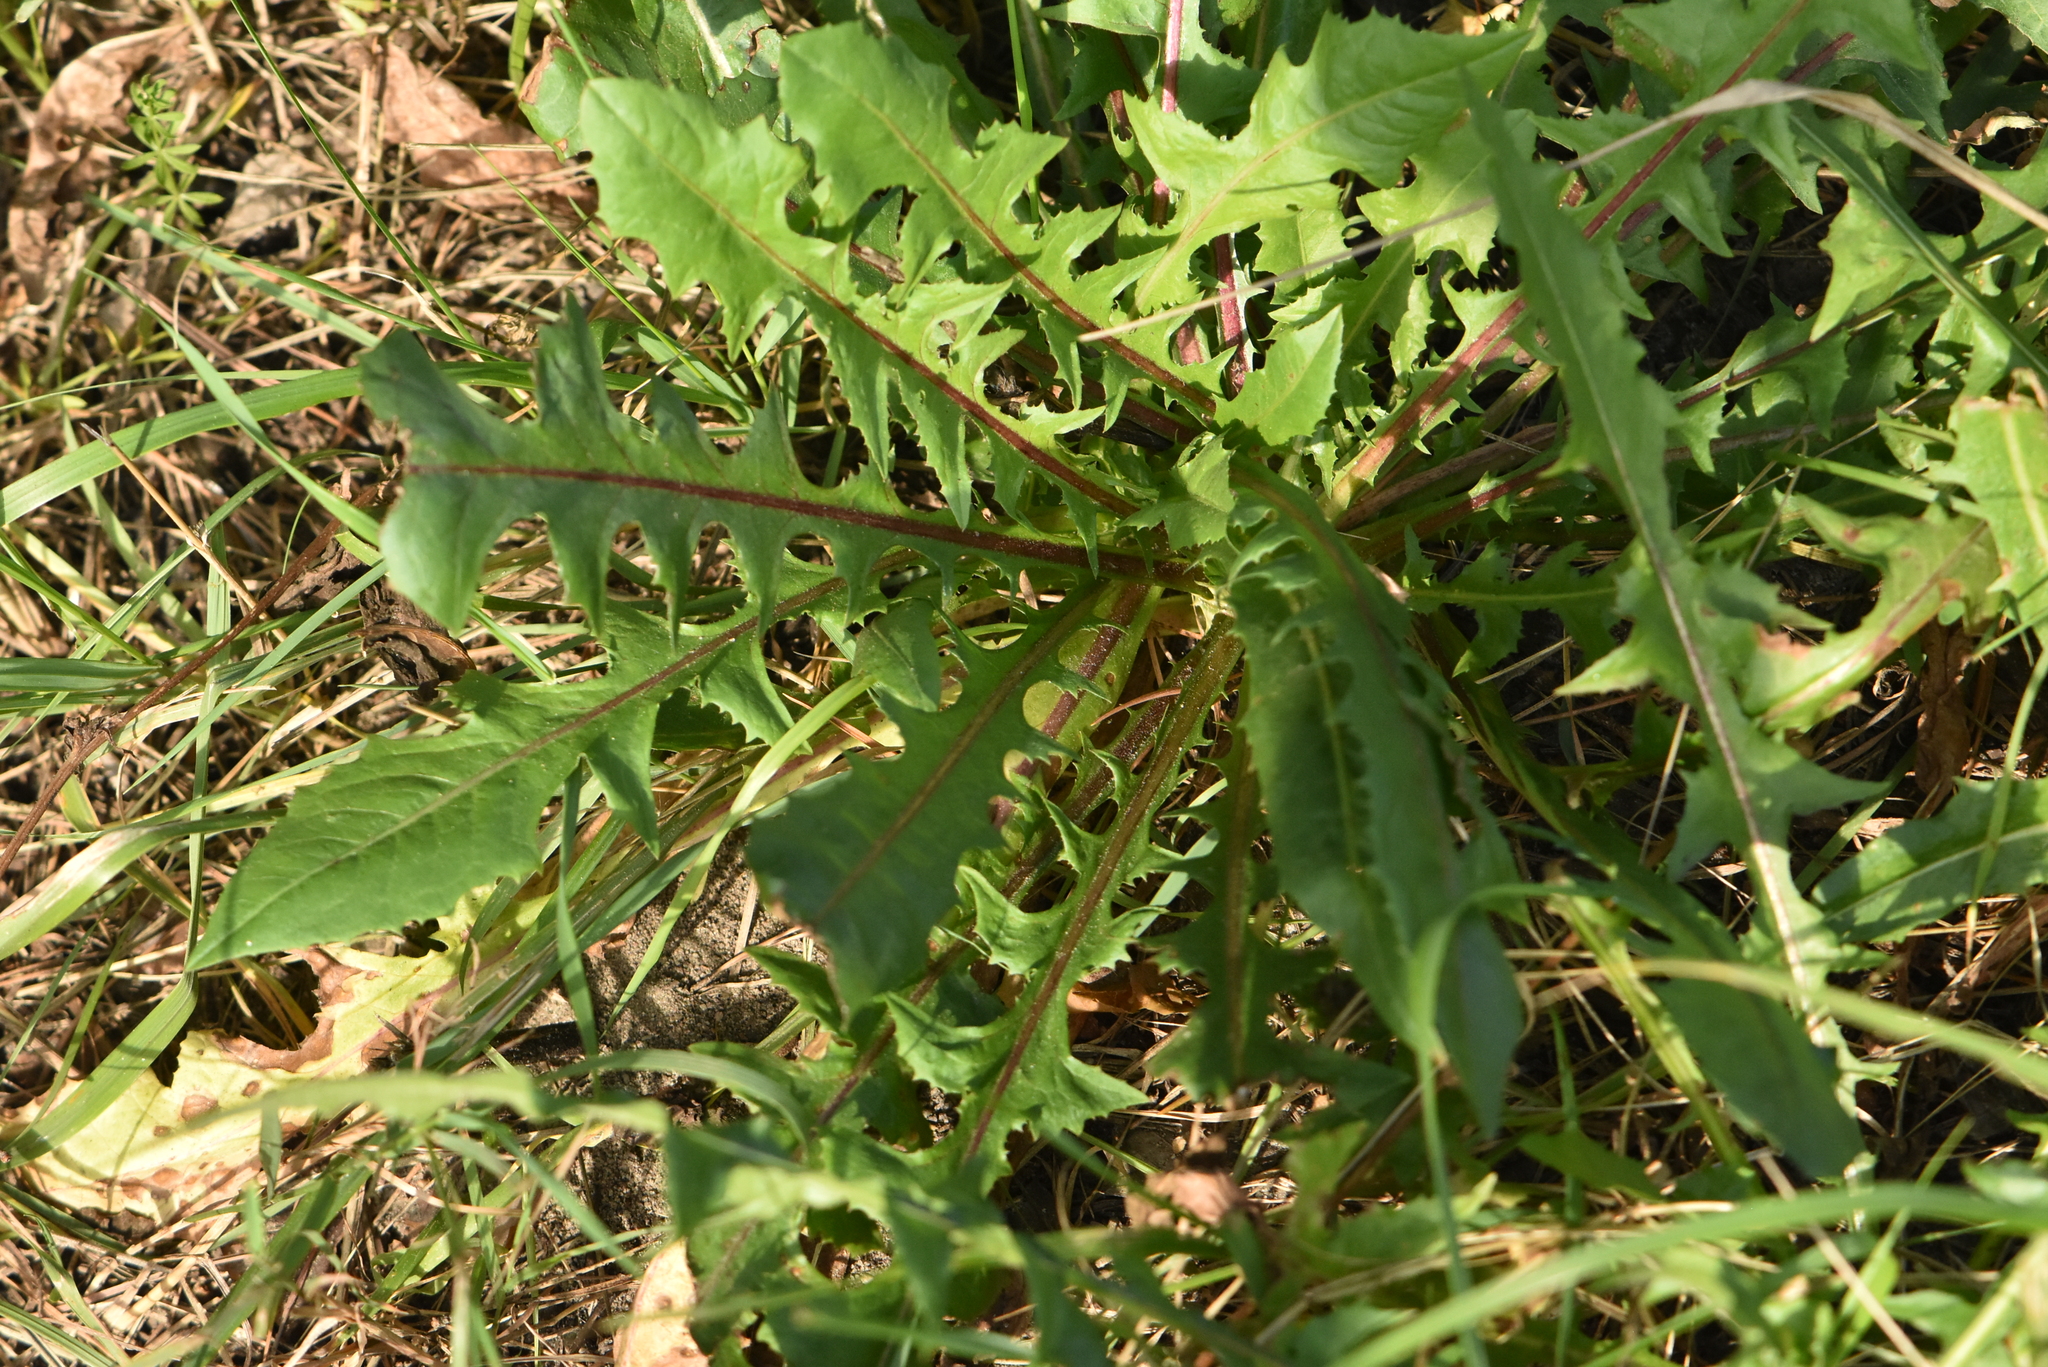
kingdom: Plantae
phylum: Tracheophyta
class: Magnoliopsida
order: Asterales
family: Asteraceae
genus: Taraxacum
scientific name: Taraxacum officinale
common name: Common dandelion
